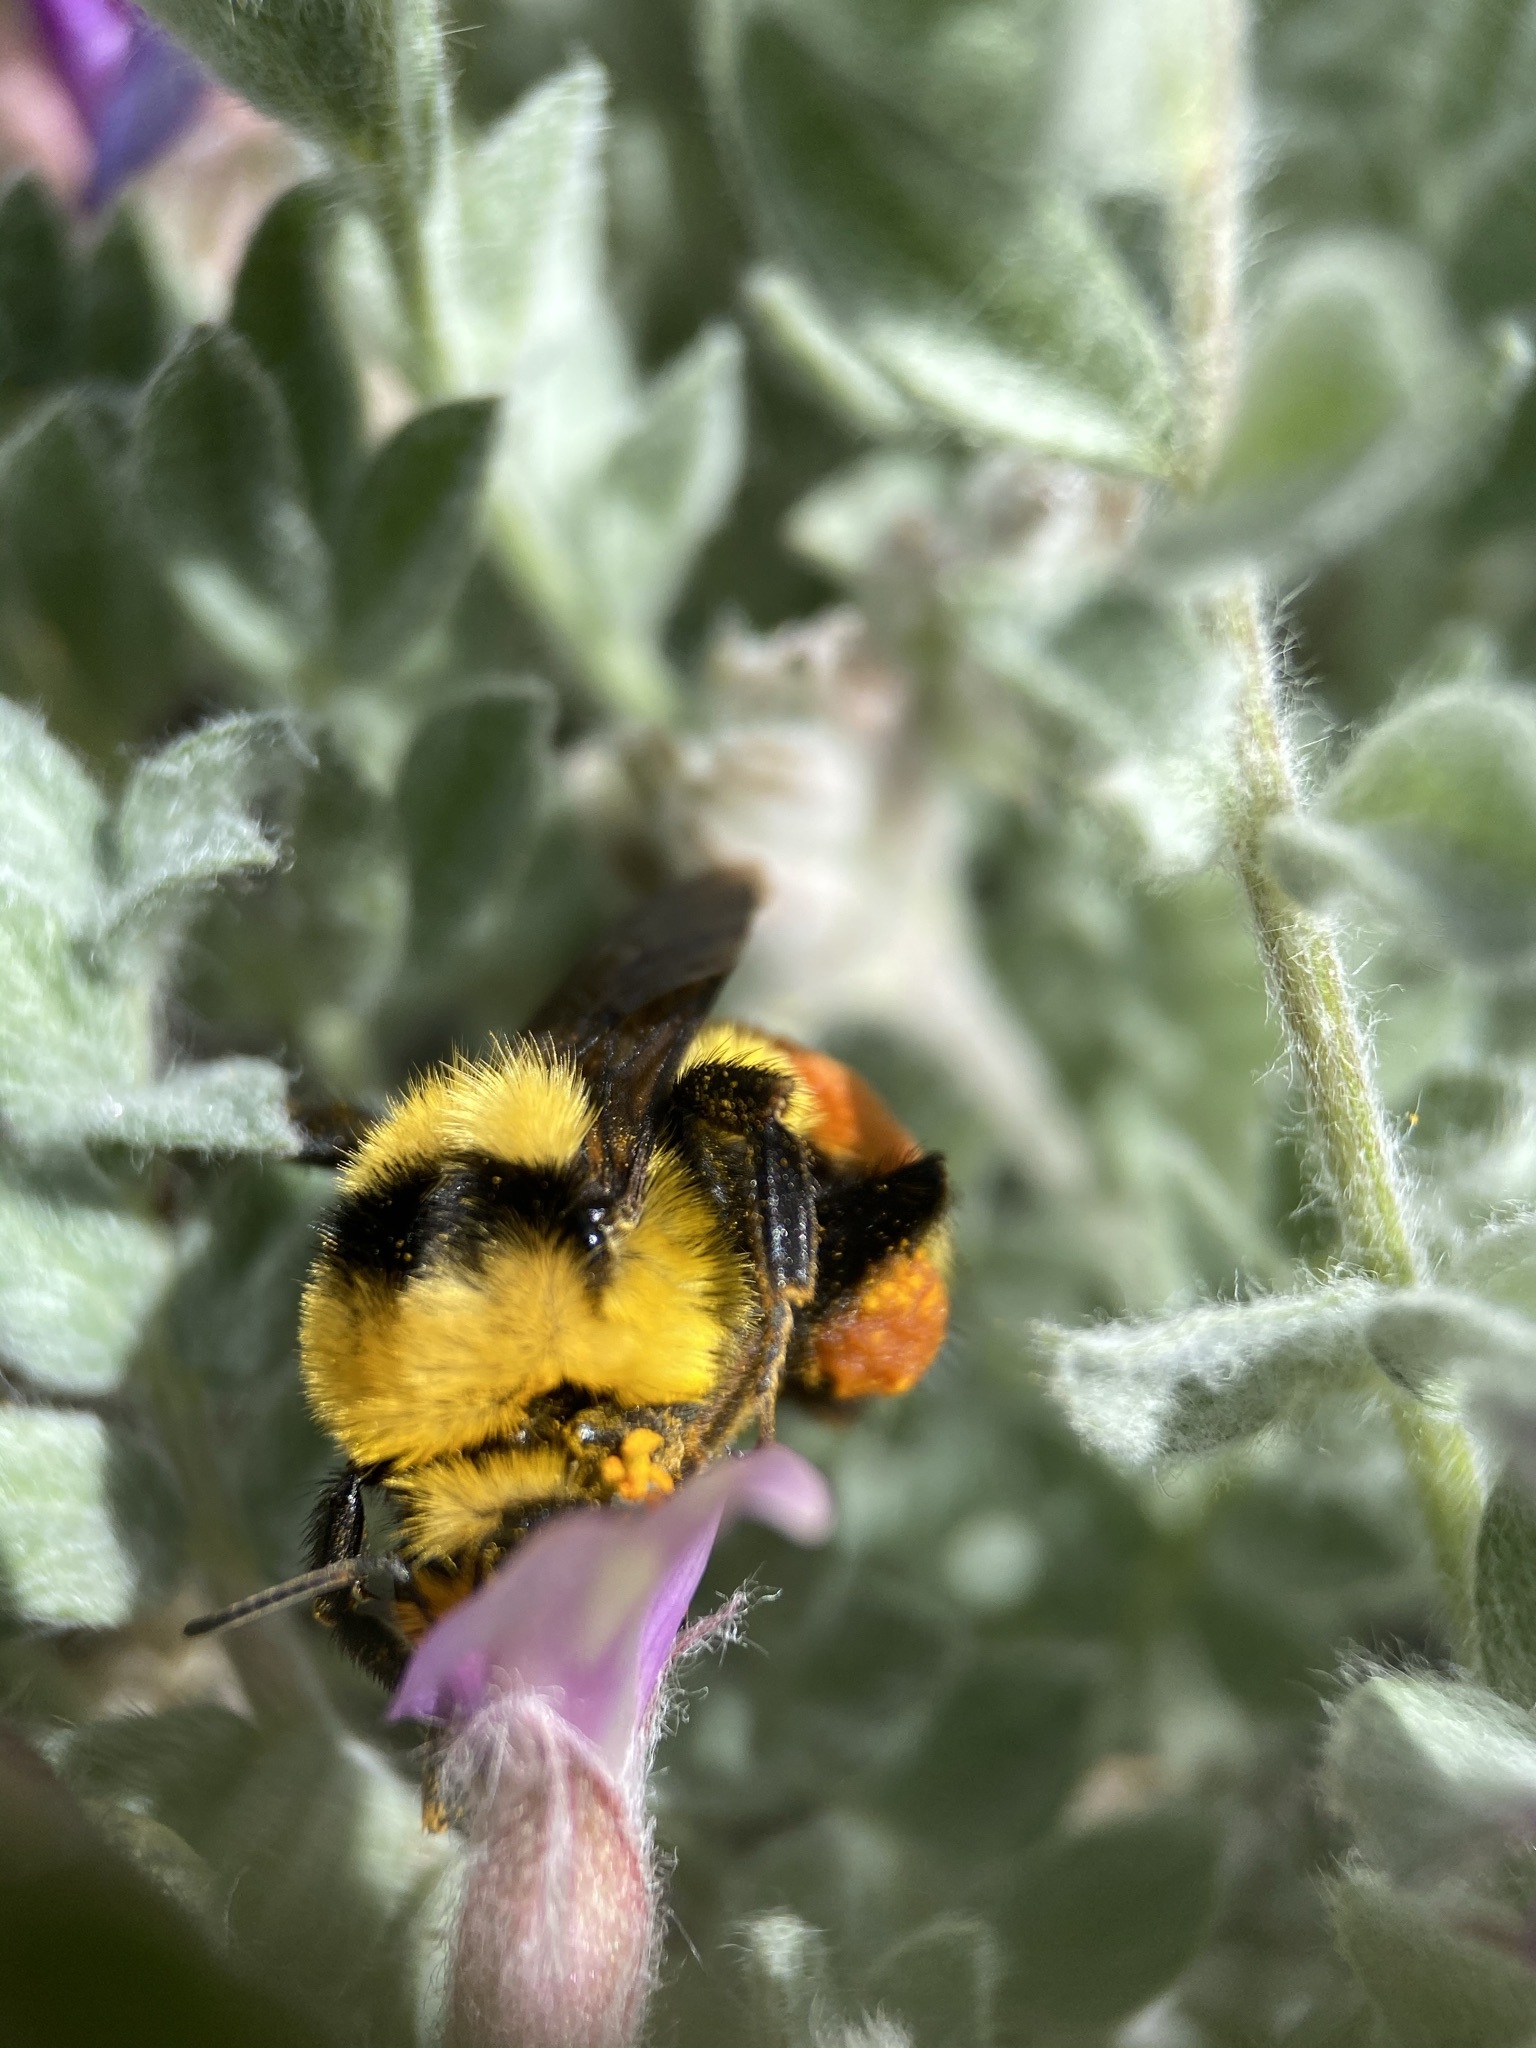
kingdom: Animalia
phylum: Arthropoda
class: Insecta
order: Hymenoptera
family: Apidae
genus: Bombus
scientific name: Bombus huntii
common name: Hunt bumble bee
